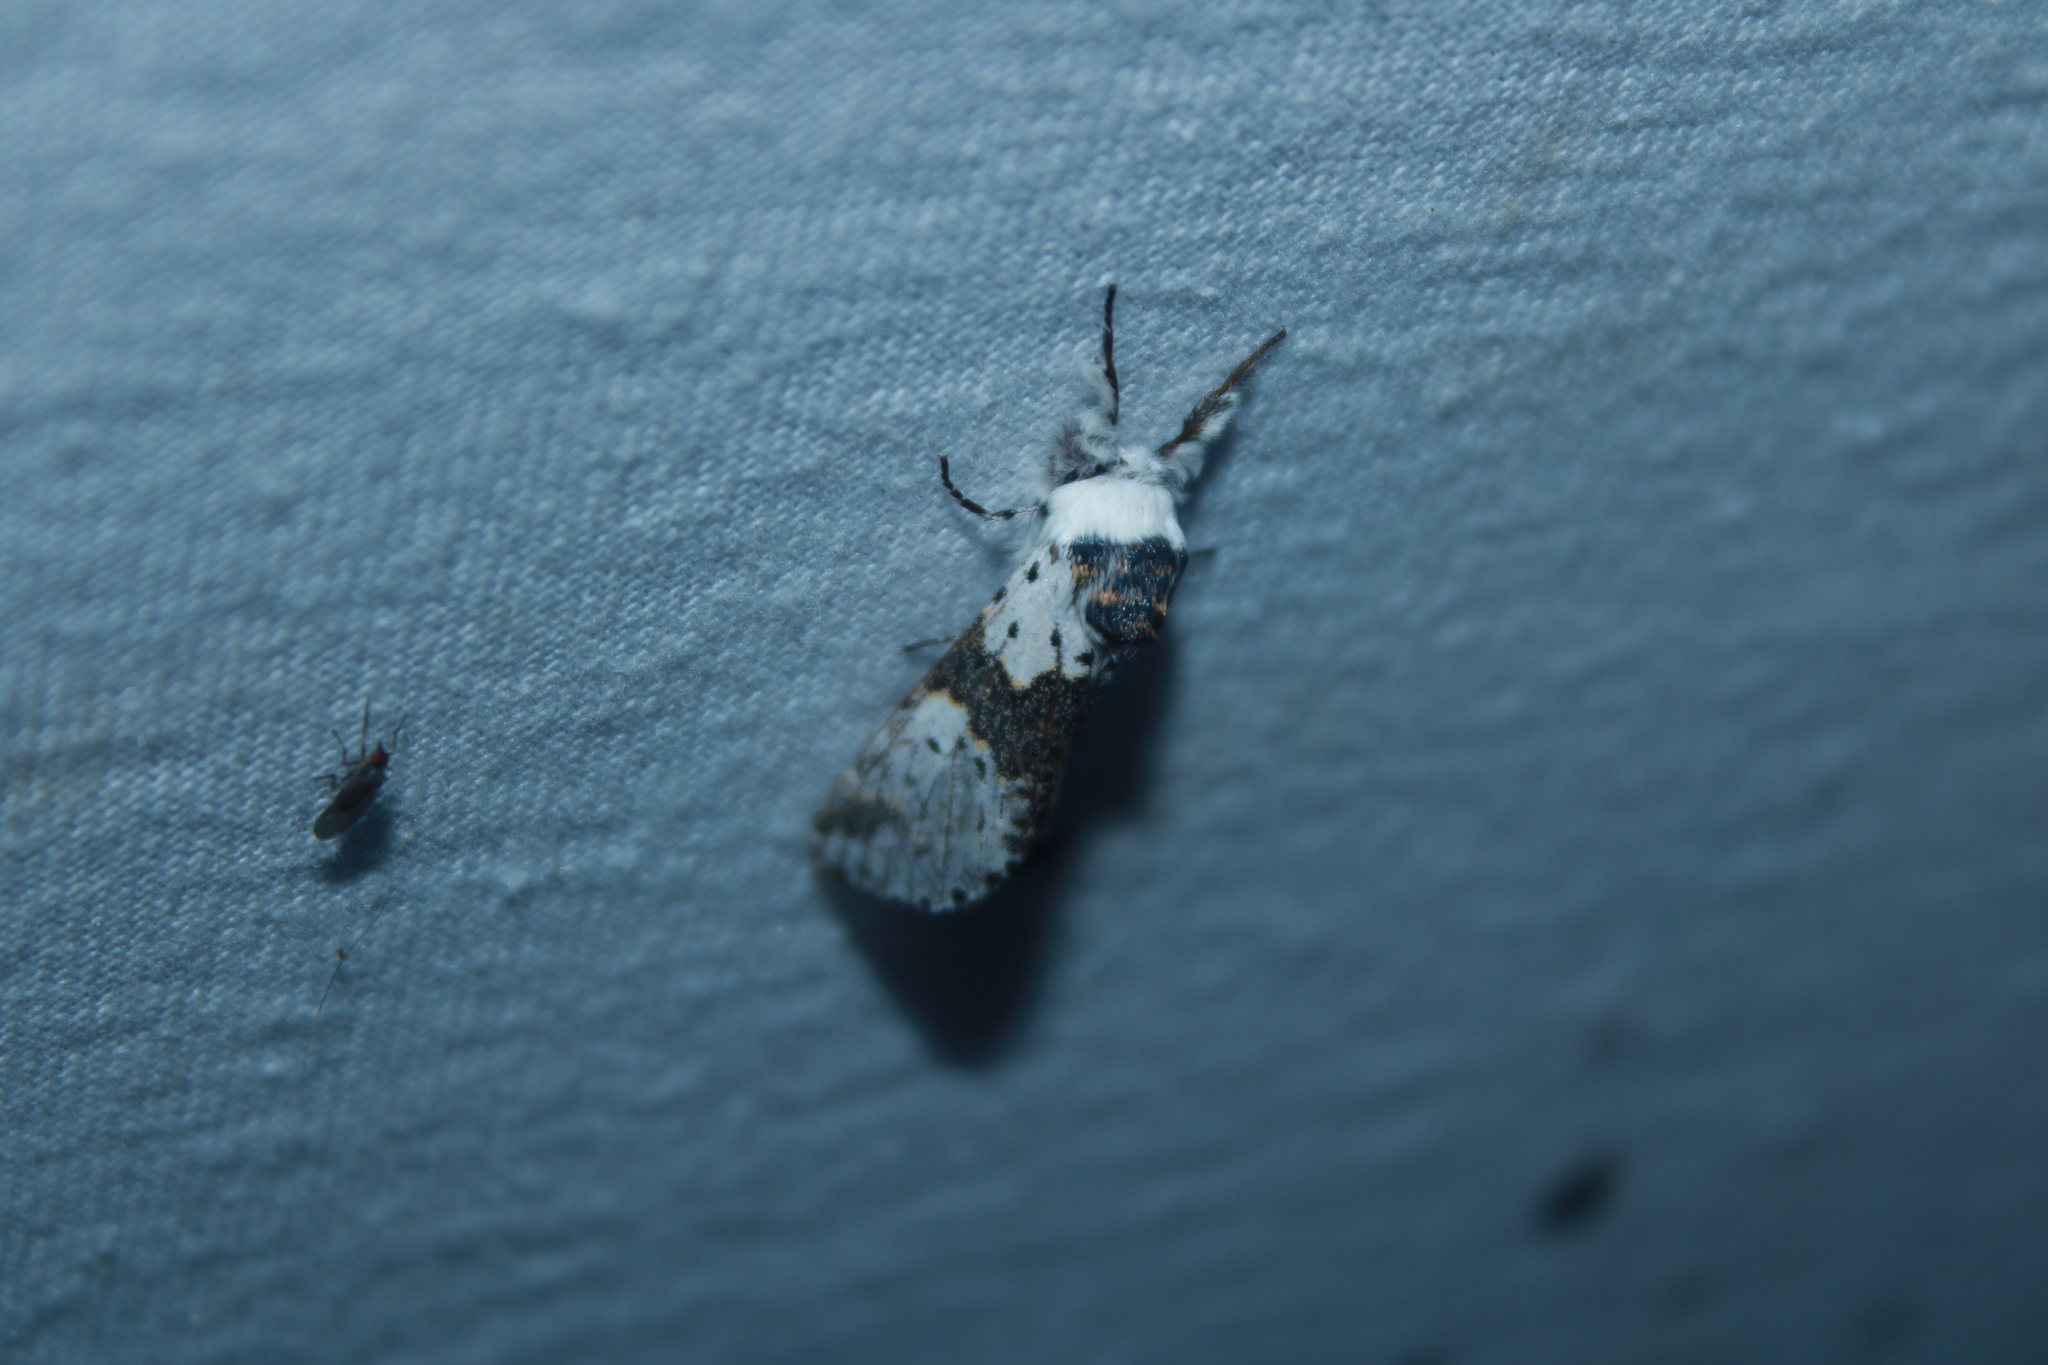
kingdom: Animalia
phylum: Arthropoda
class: Insecta
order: Lepidoptera
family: Notodontidae
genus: Furcula
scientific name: Furcula borealis
